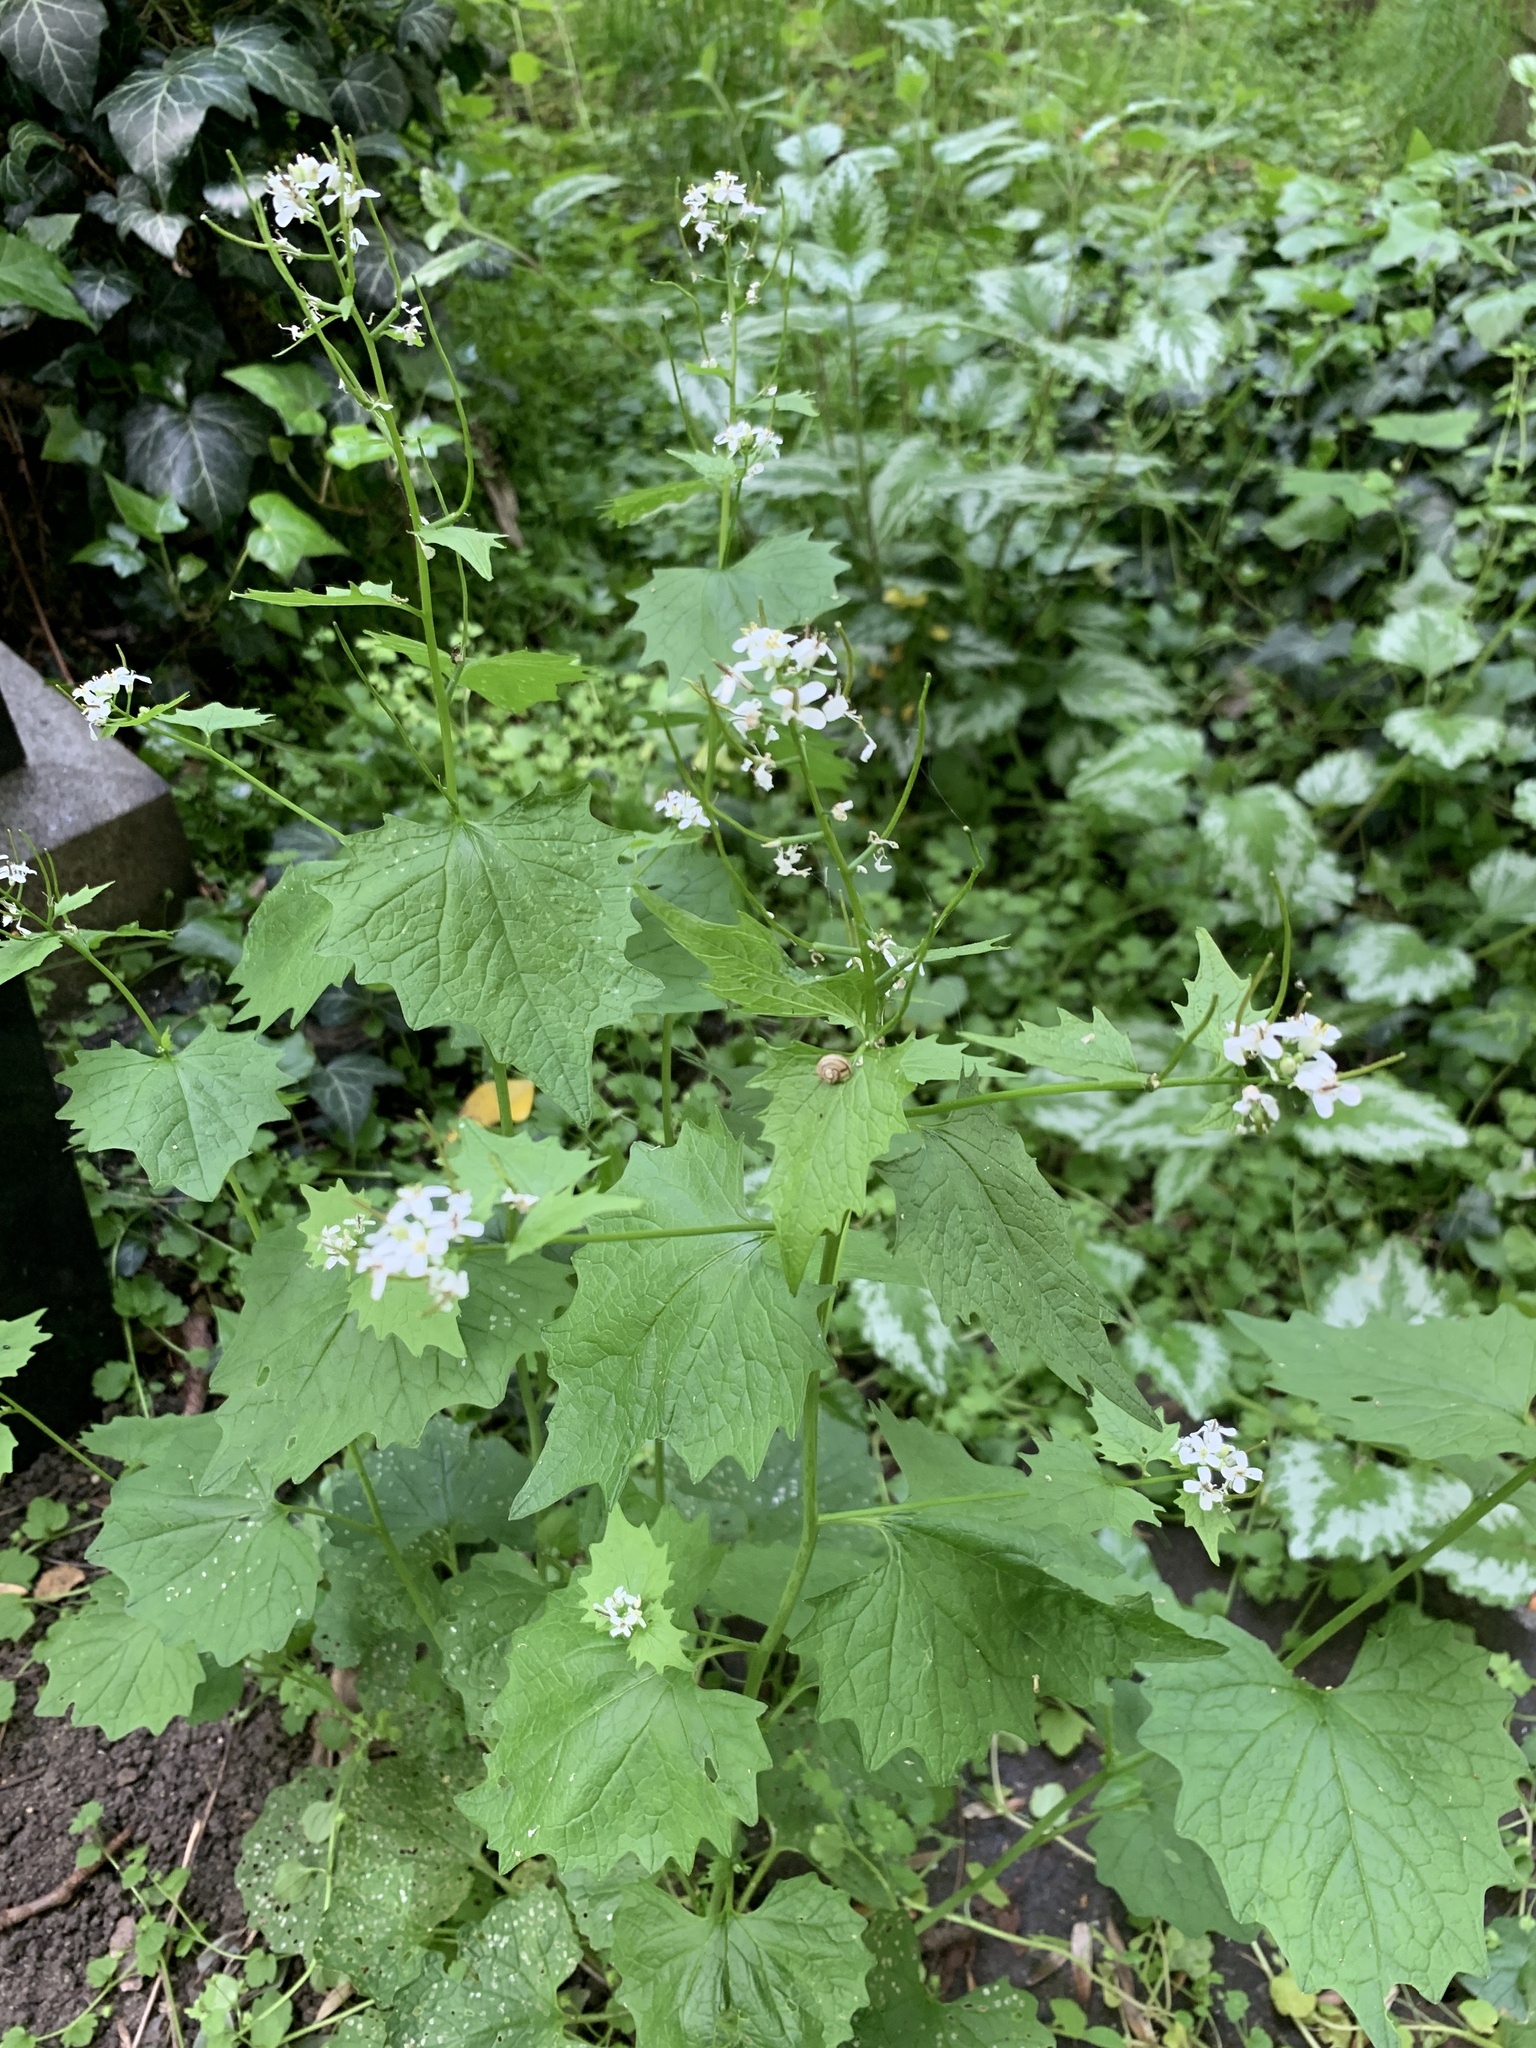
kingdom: Plantae
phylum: Tracheophyta
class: Magnoliopsida
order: Brassicales
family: Brassicaceae
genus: Alliaria
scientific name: Alliaria petiolata
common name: Garlic mustard
